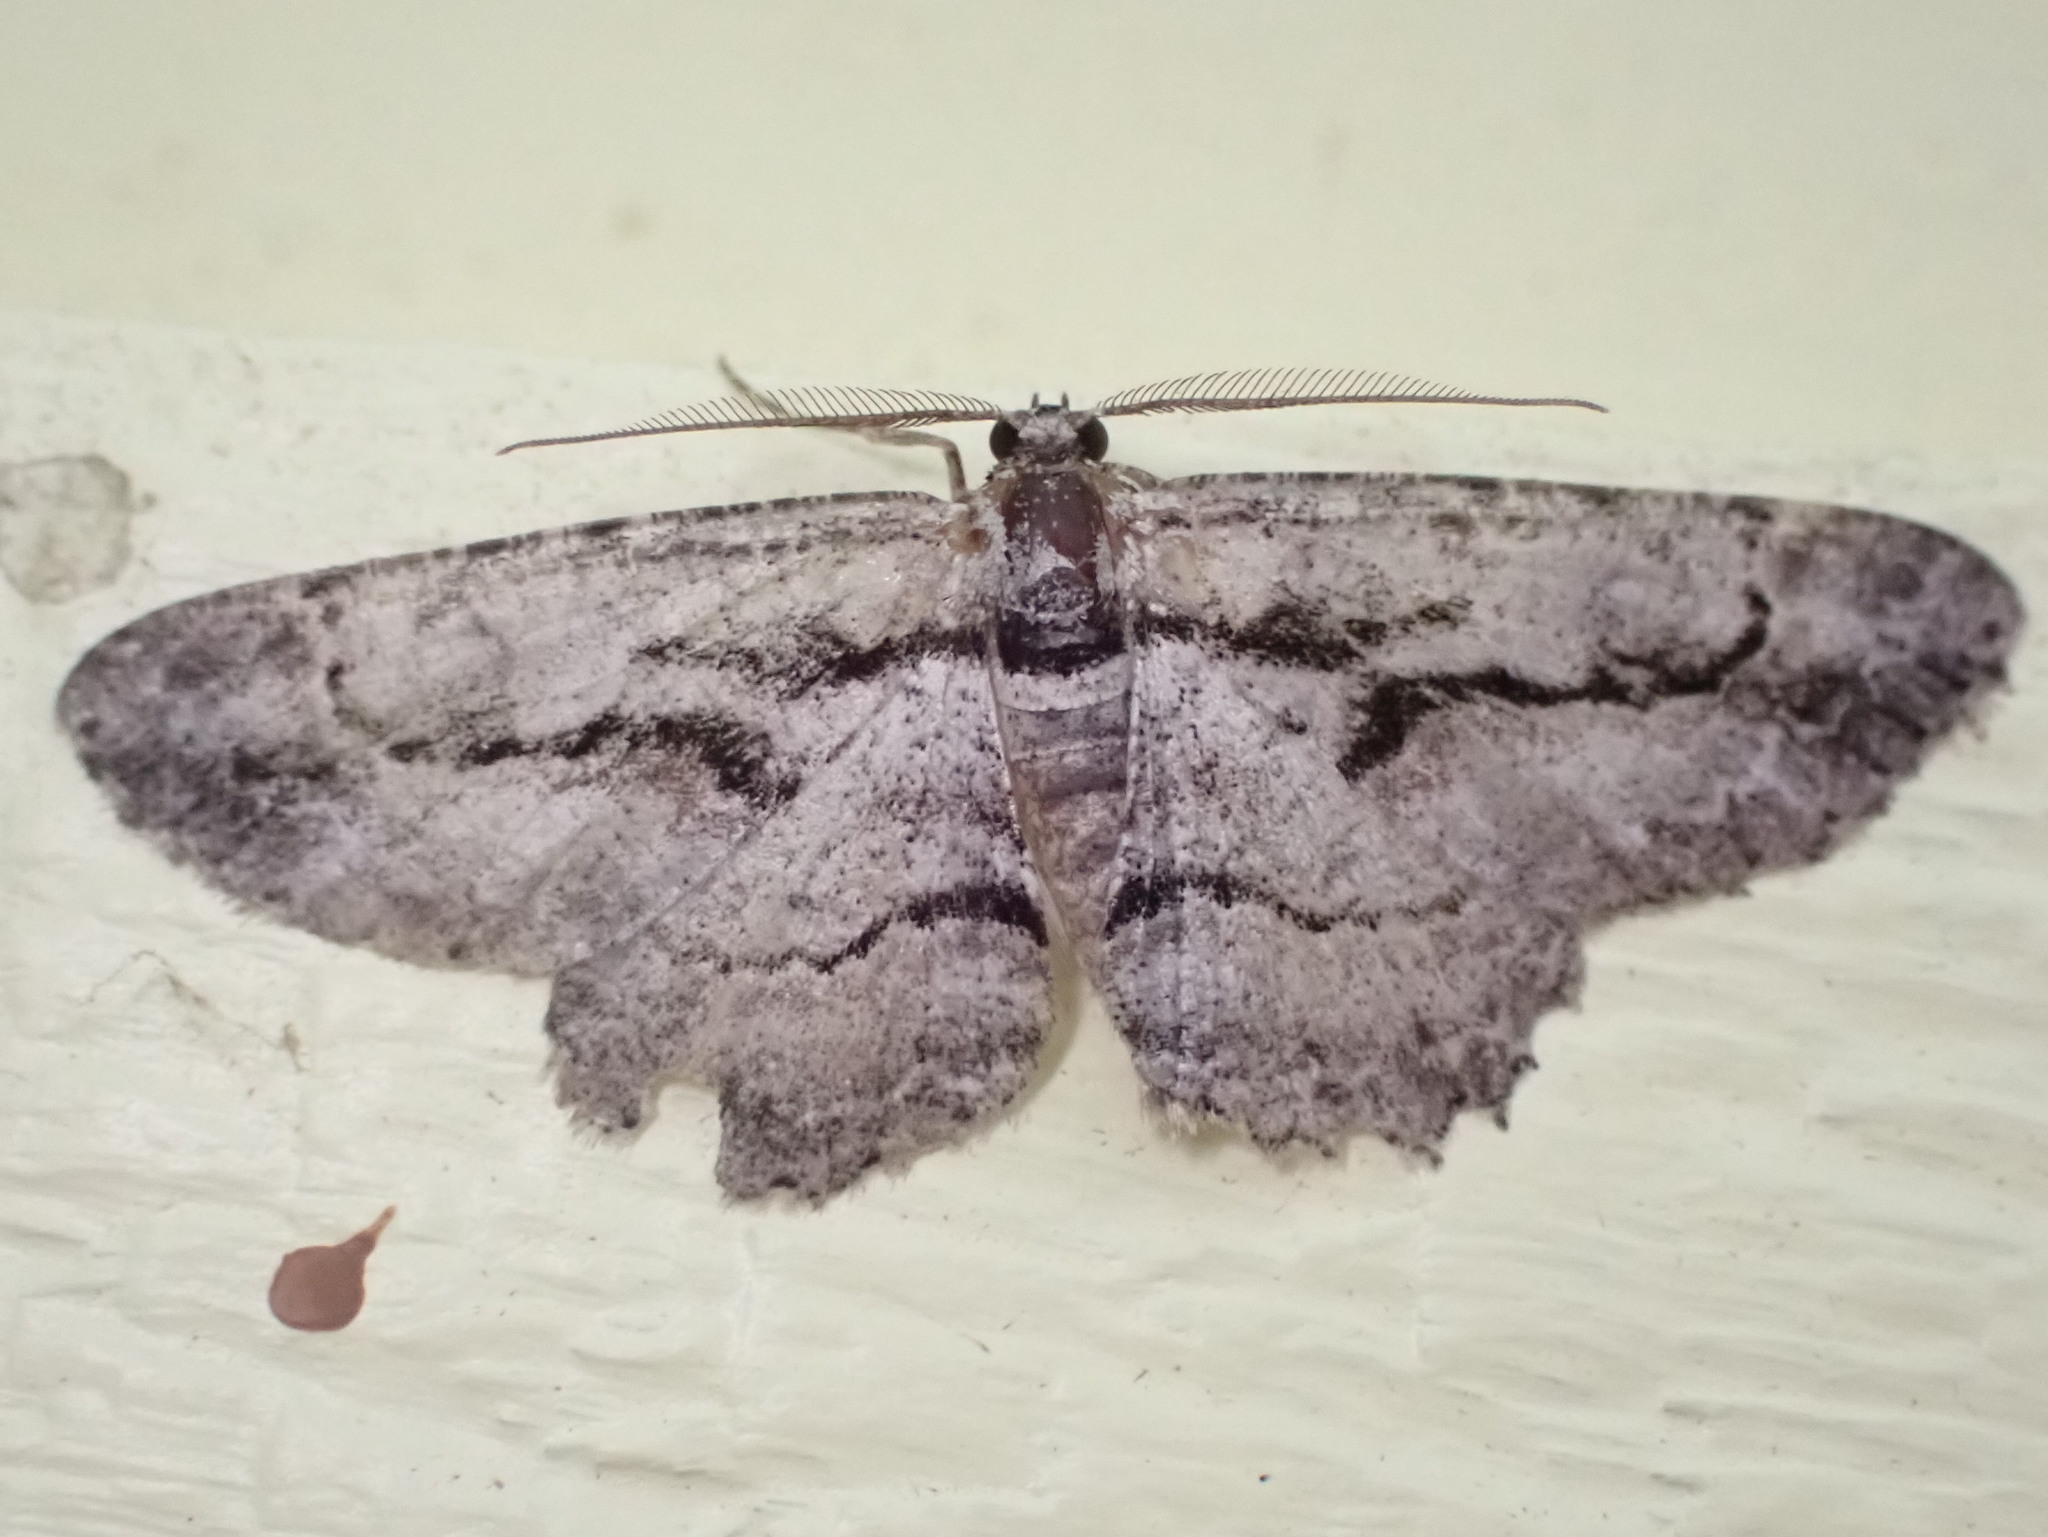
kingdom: Animalia
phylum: Arthropoda
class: Insecta
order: Lepidoptera
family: Geometridae
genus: Anavitrinella
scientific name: Anavitrinella pampinaria
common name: Common gray
